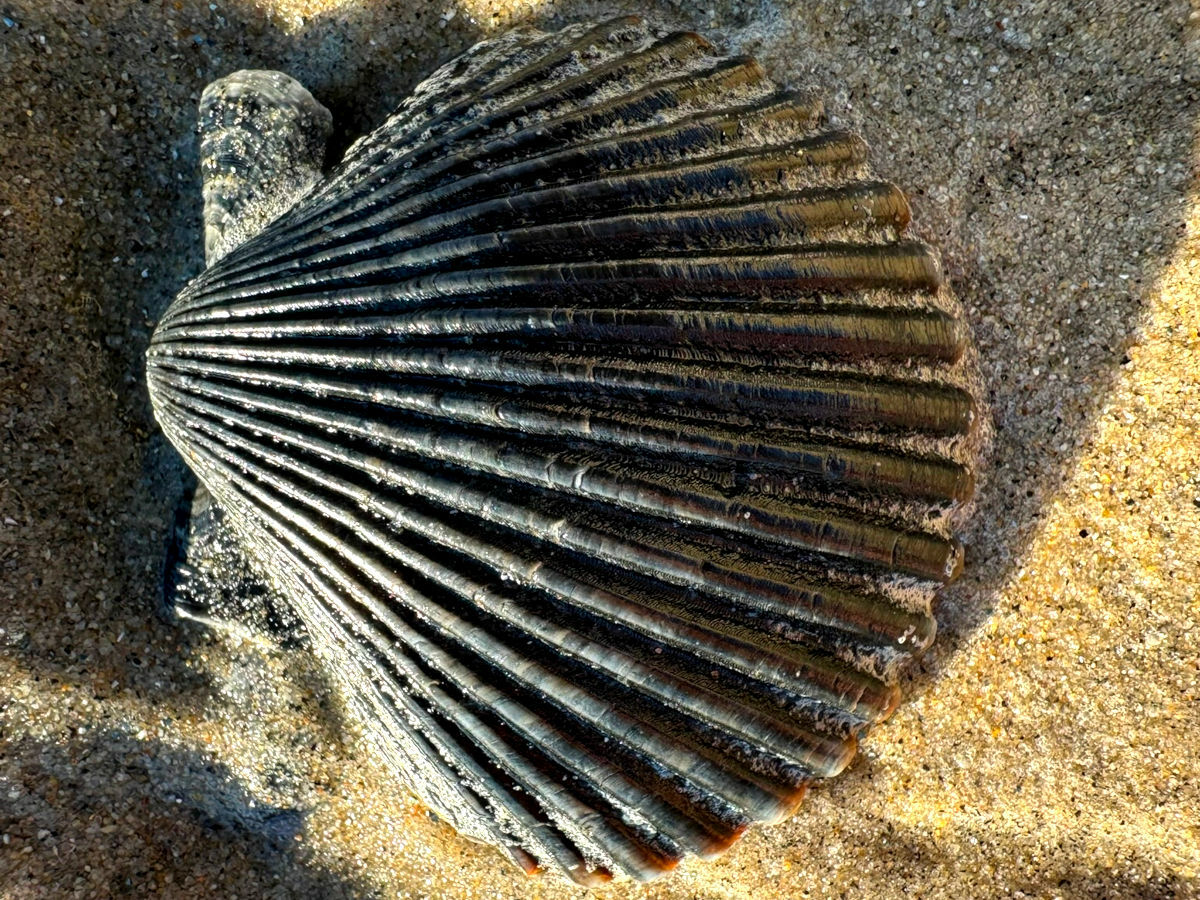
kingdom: Animalia
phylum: Mollusca
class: Bivalvia
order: Pectinida
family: Pectinidae
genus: Argopecten
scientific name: Argopecten ventricosus
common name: Catarina scallop
